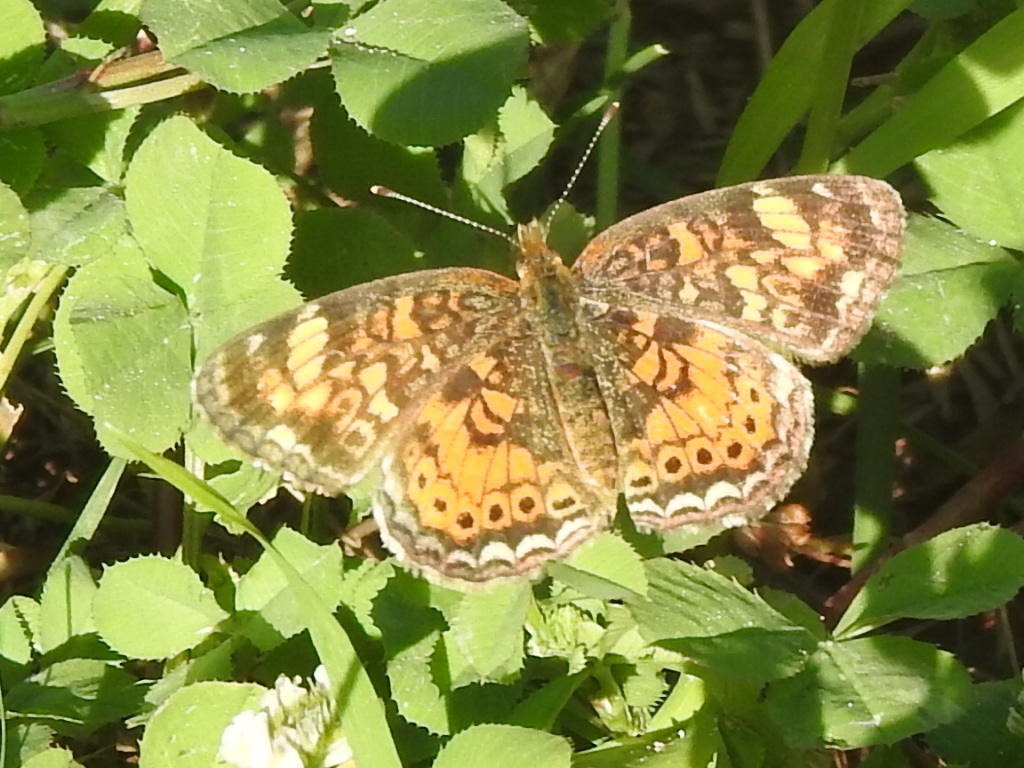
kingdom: Animalia
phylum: Arthropoda
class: Insecta
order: Lepidoptera
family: Nymphalidae
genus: Phyciodes
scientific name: Phyciodes tharos
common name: Pearl crescent
